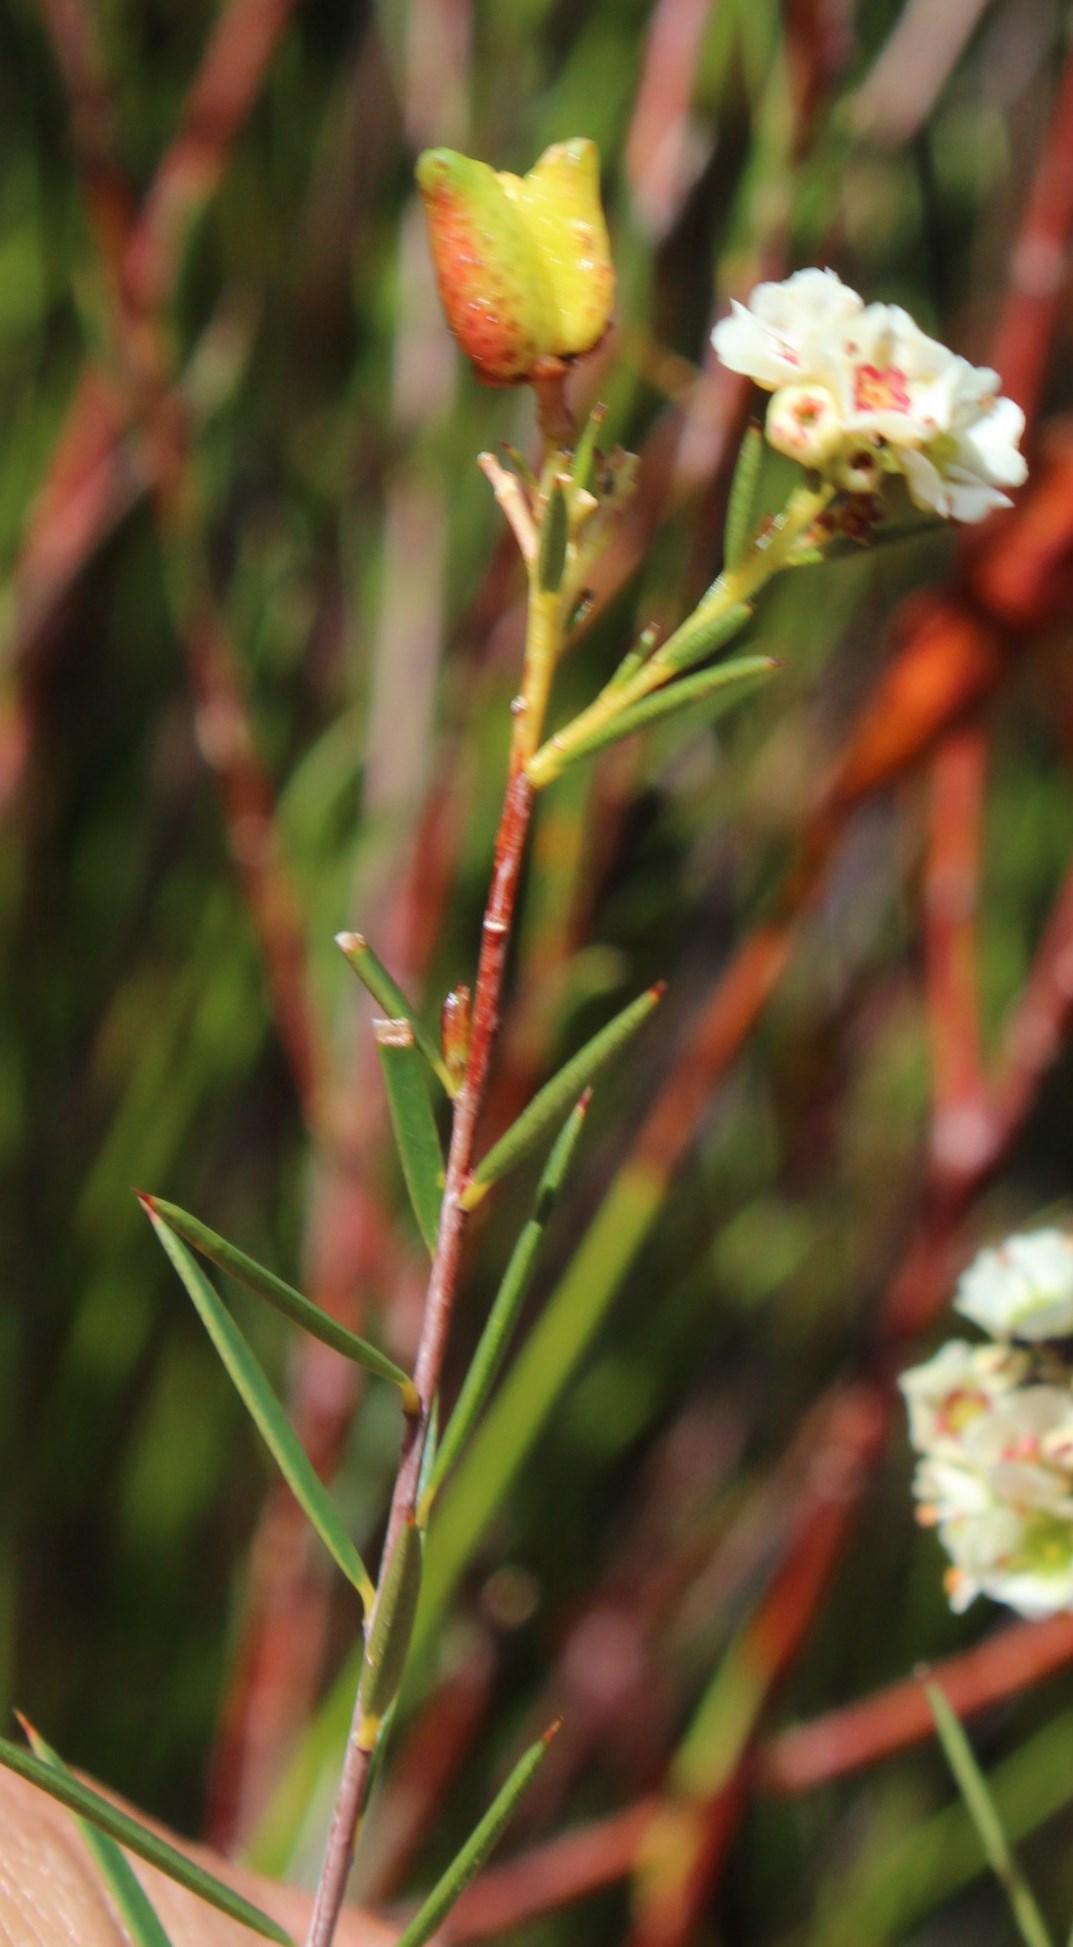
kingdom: Plantae
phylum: Tracheophyta
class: Magnoliopsida
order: Sapindales
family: Rutaceae
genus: Diosma
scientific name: Diosma hirsuta
